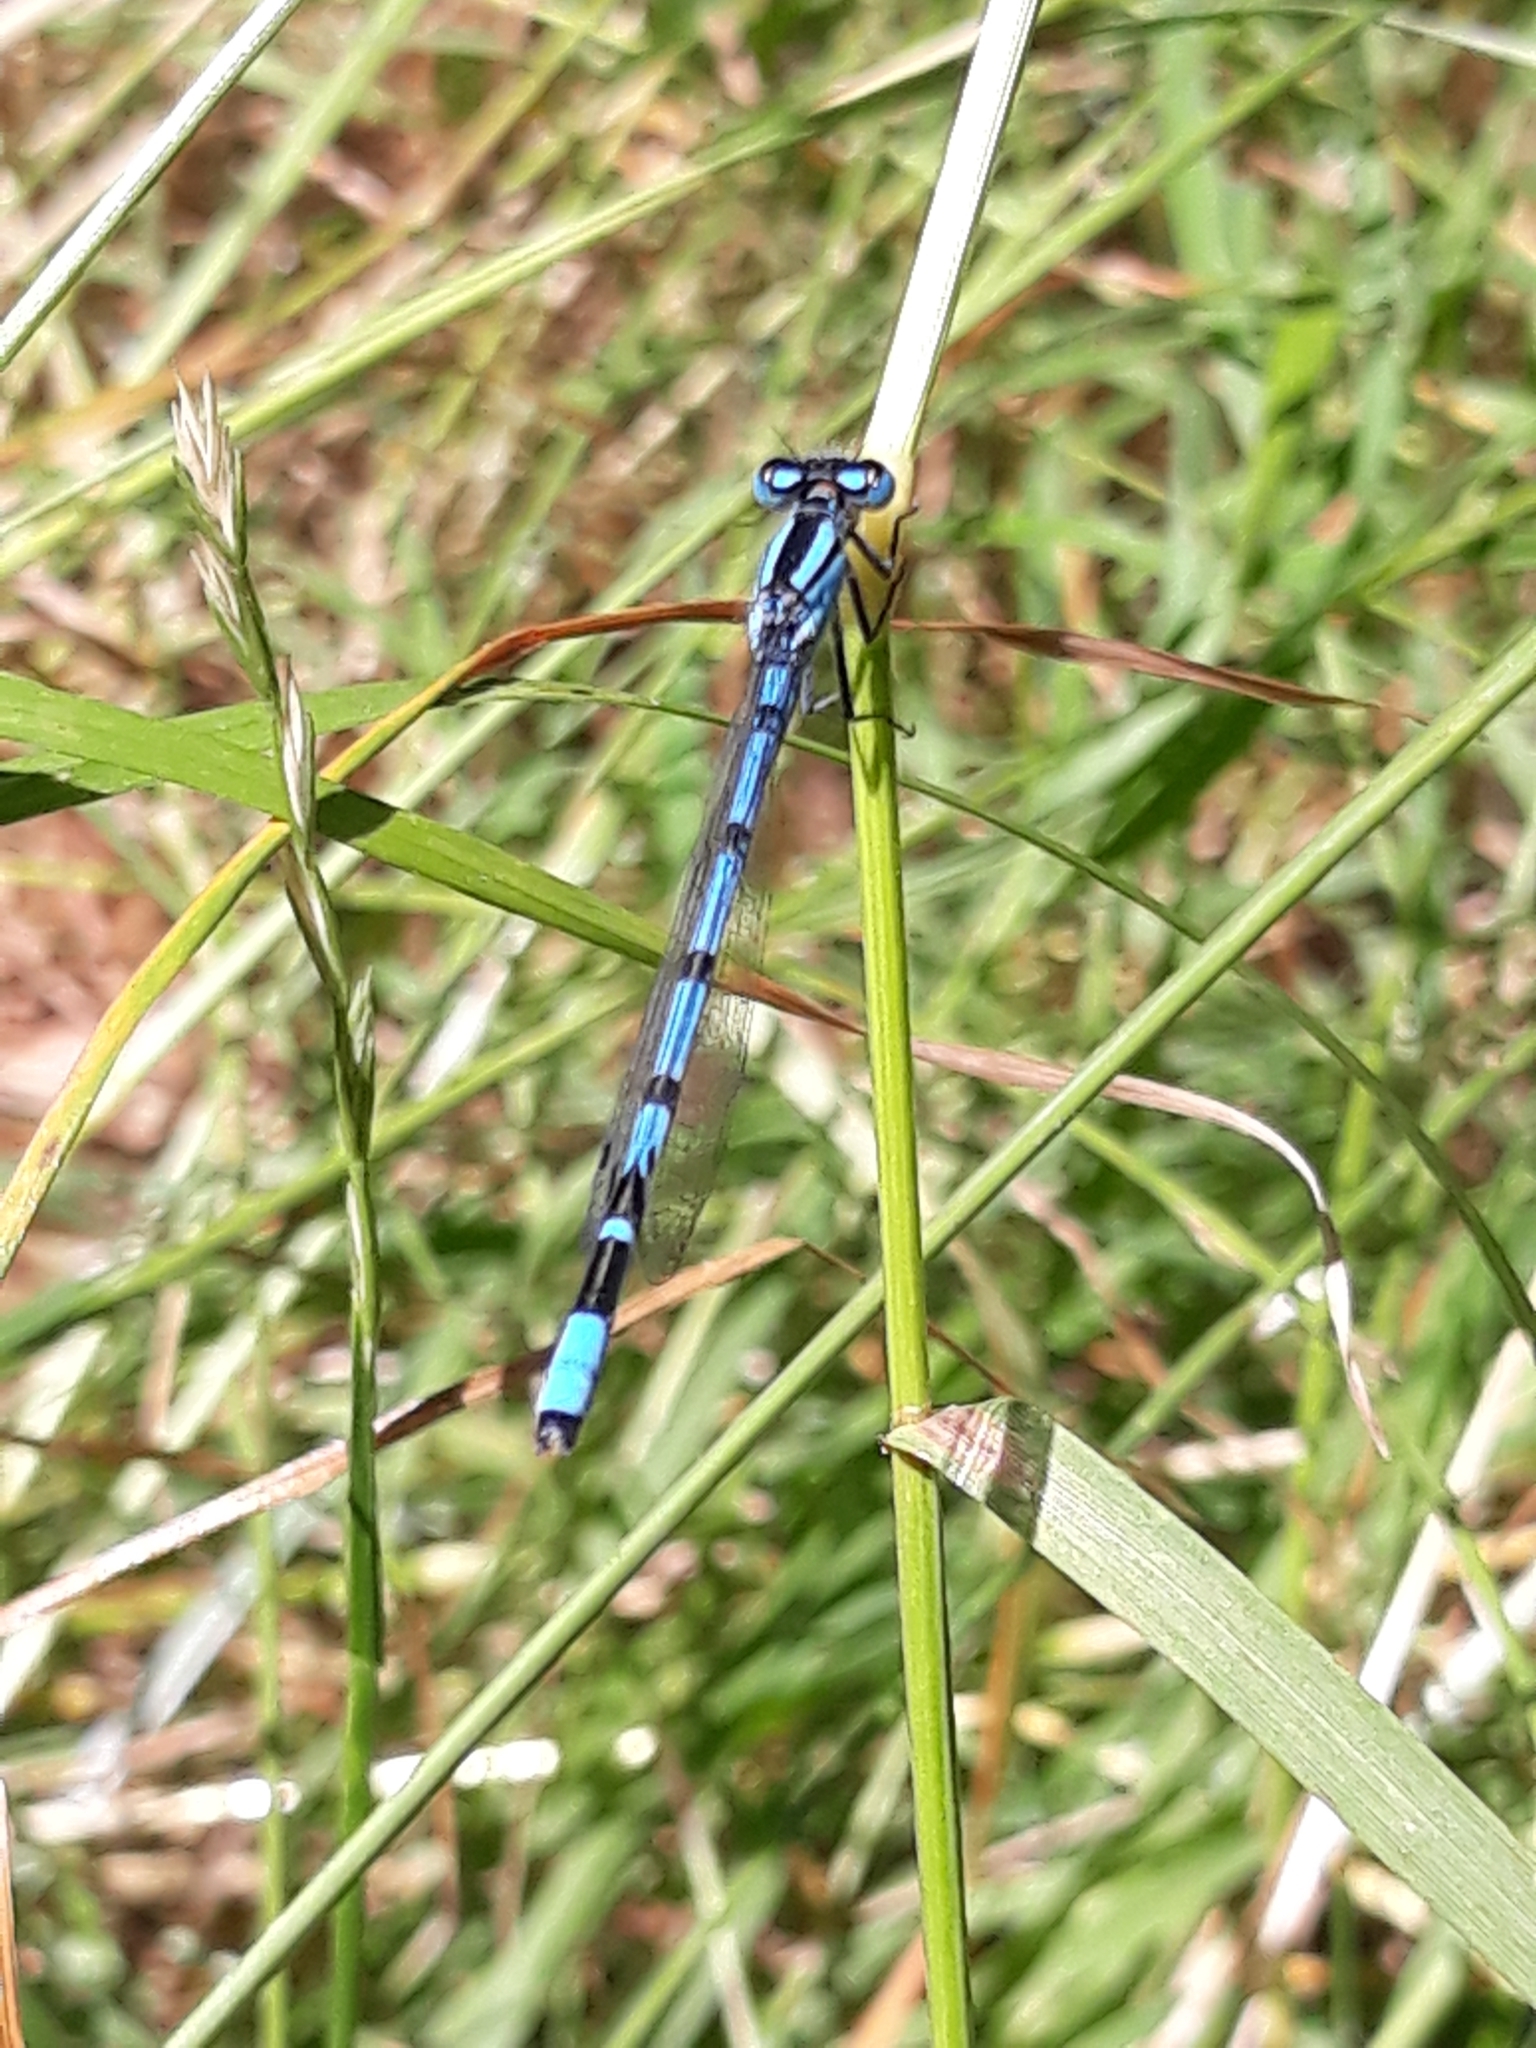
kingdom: Animalia
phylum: Arthropoda
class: Insecta
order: Odonata
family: Coenagrionidae
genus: Enallagma
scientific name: Enallagma cyathigerum
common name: Common blue damselfly
